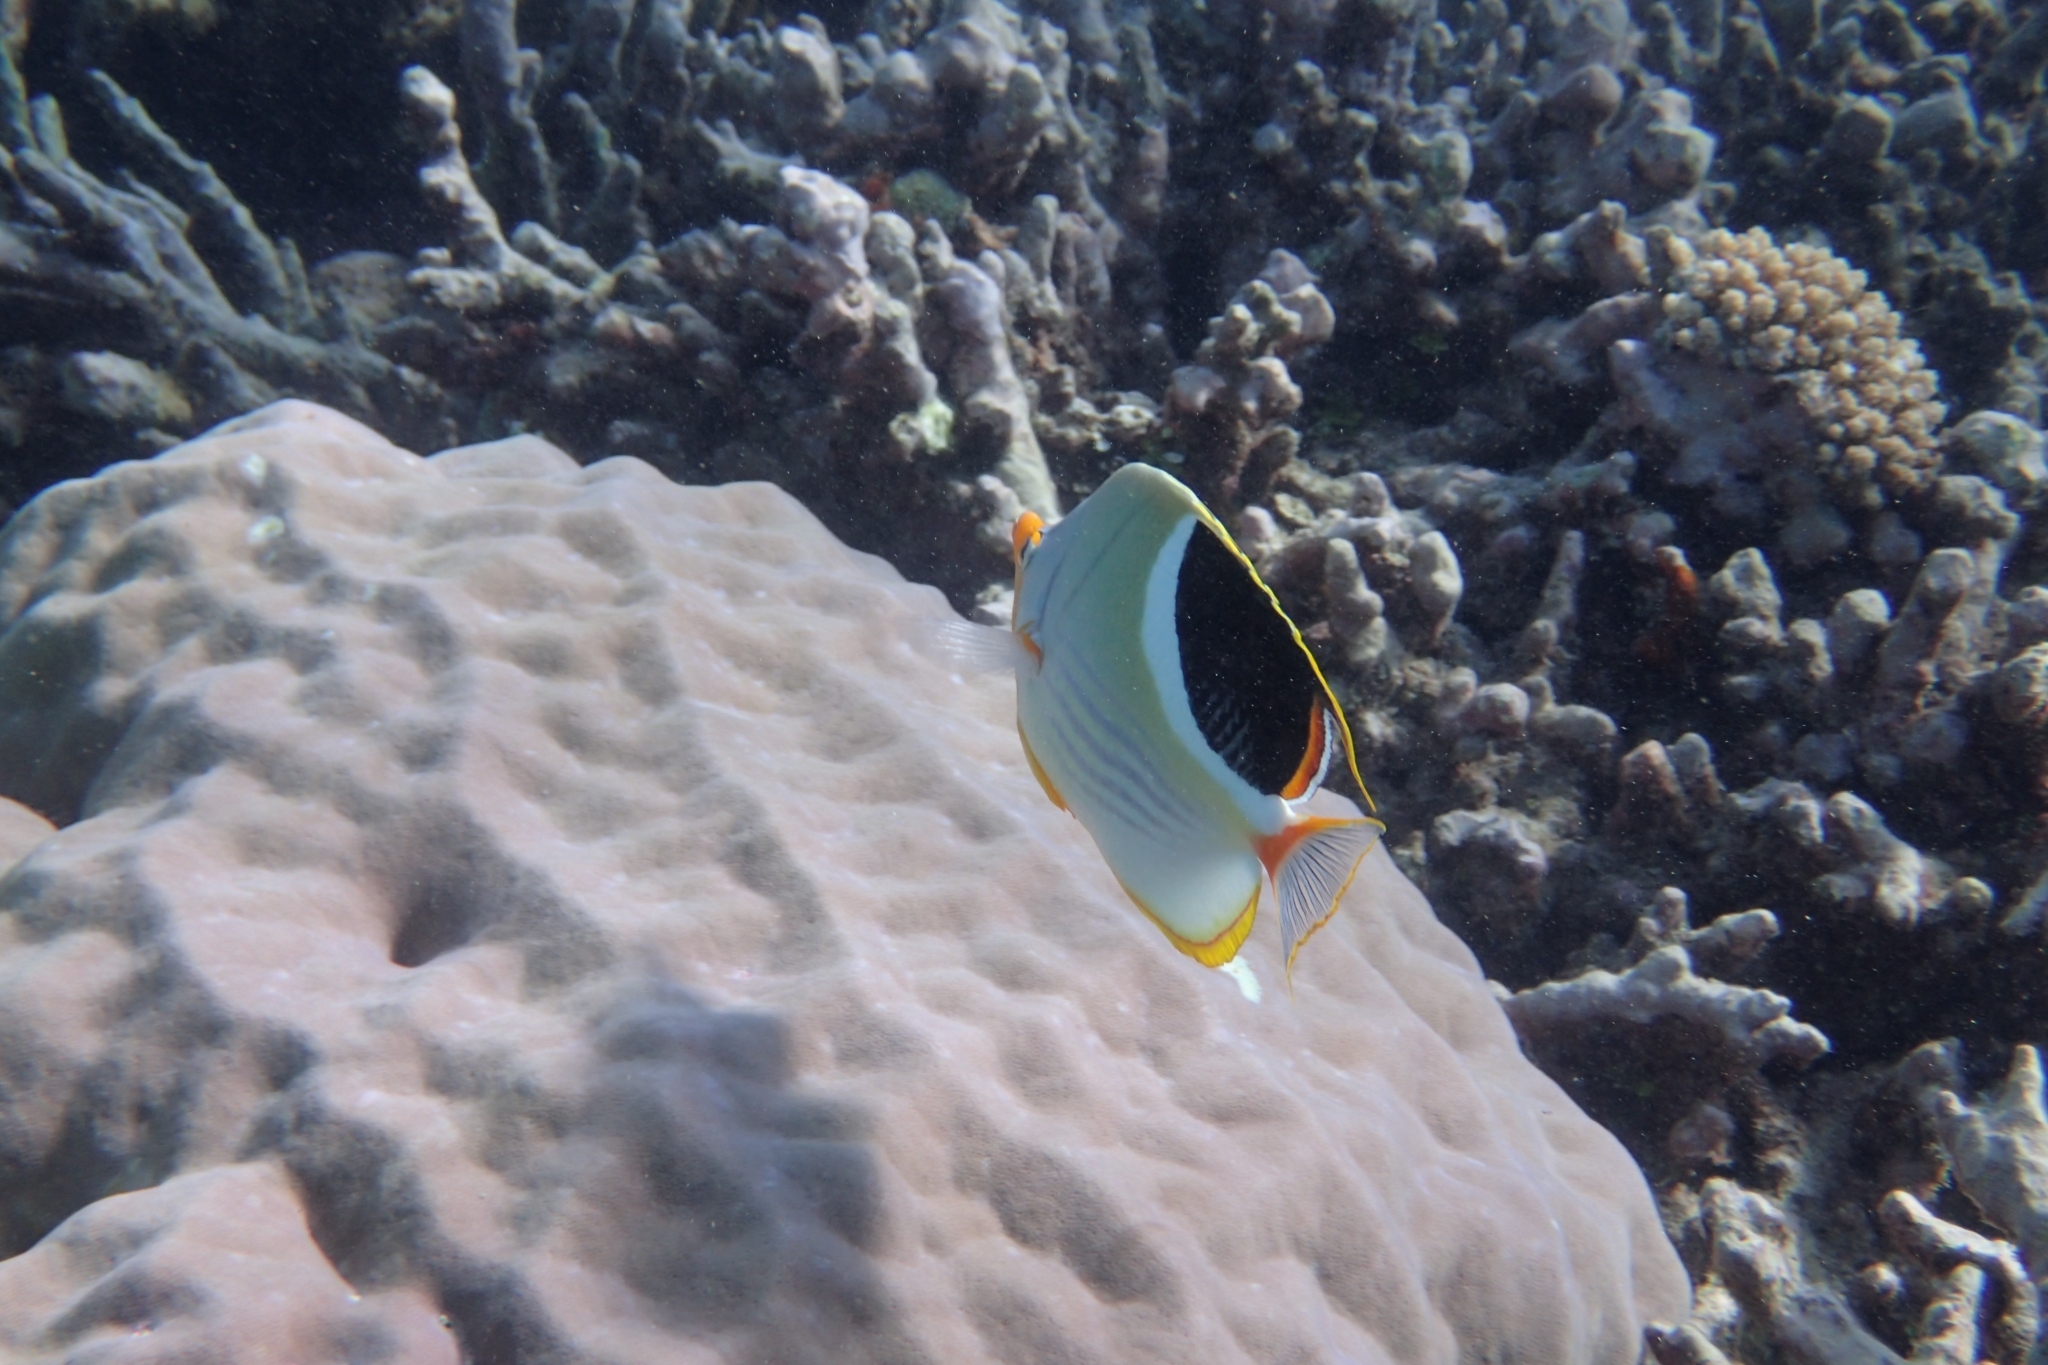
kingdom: Animalia
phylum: Chordata
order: Perciformes
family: Chaetodontidae
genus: Chaetodon
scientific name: Chaetodon ephippium
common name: Saddled butterflyfish
